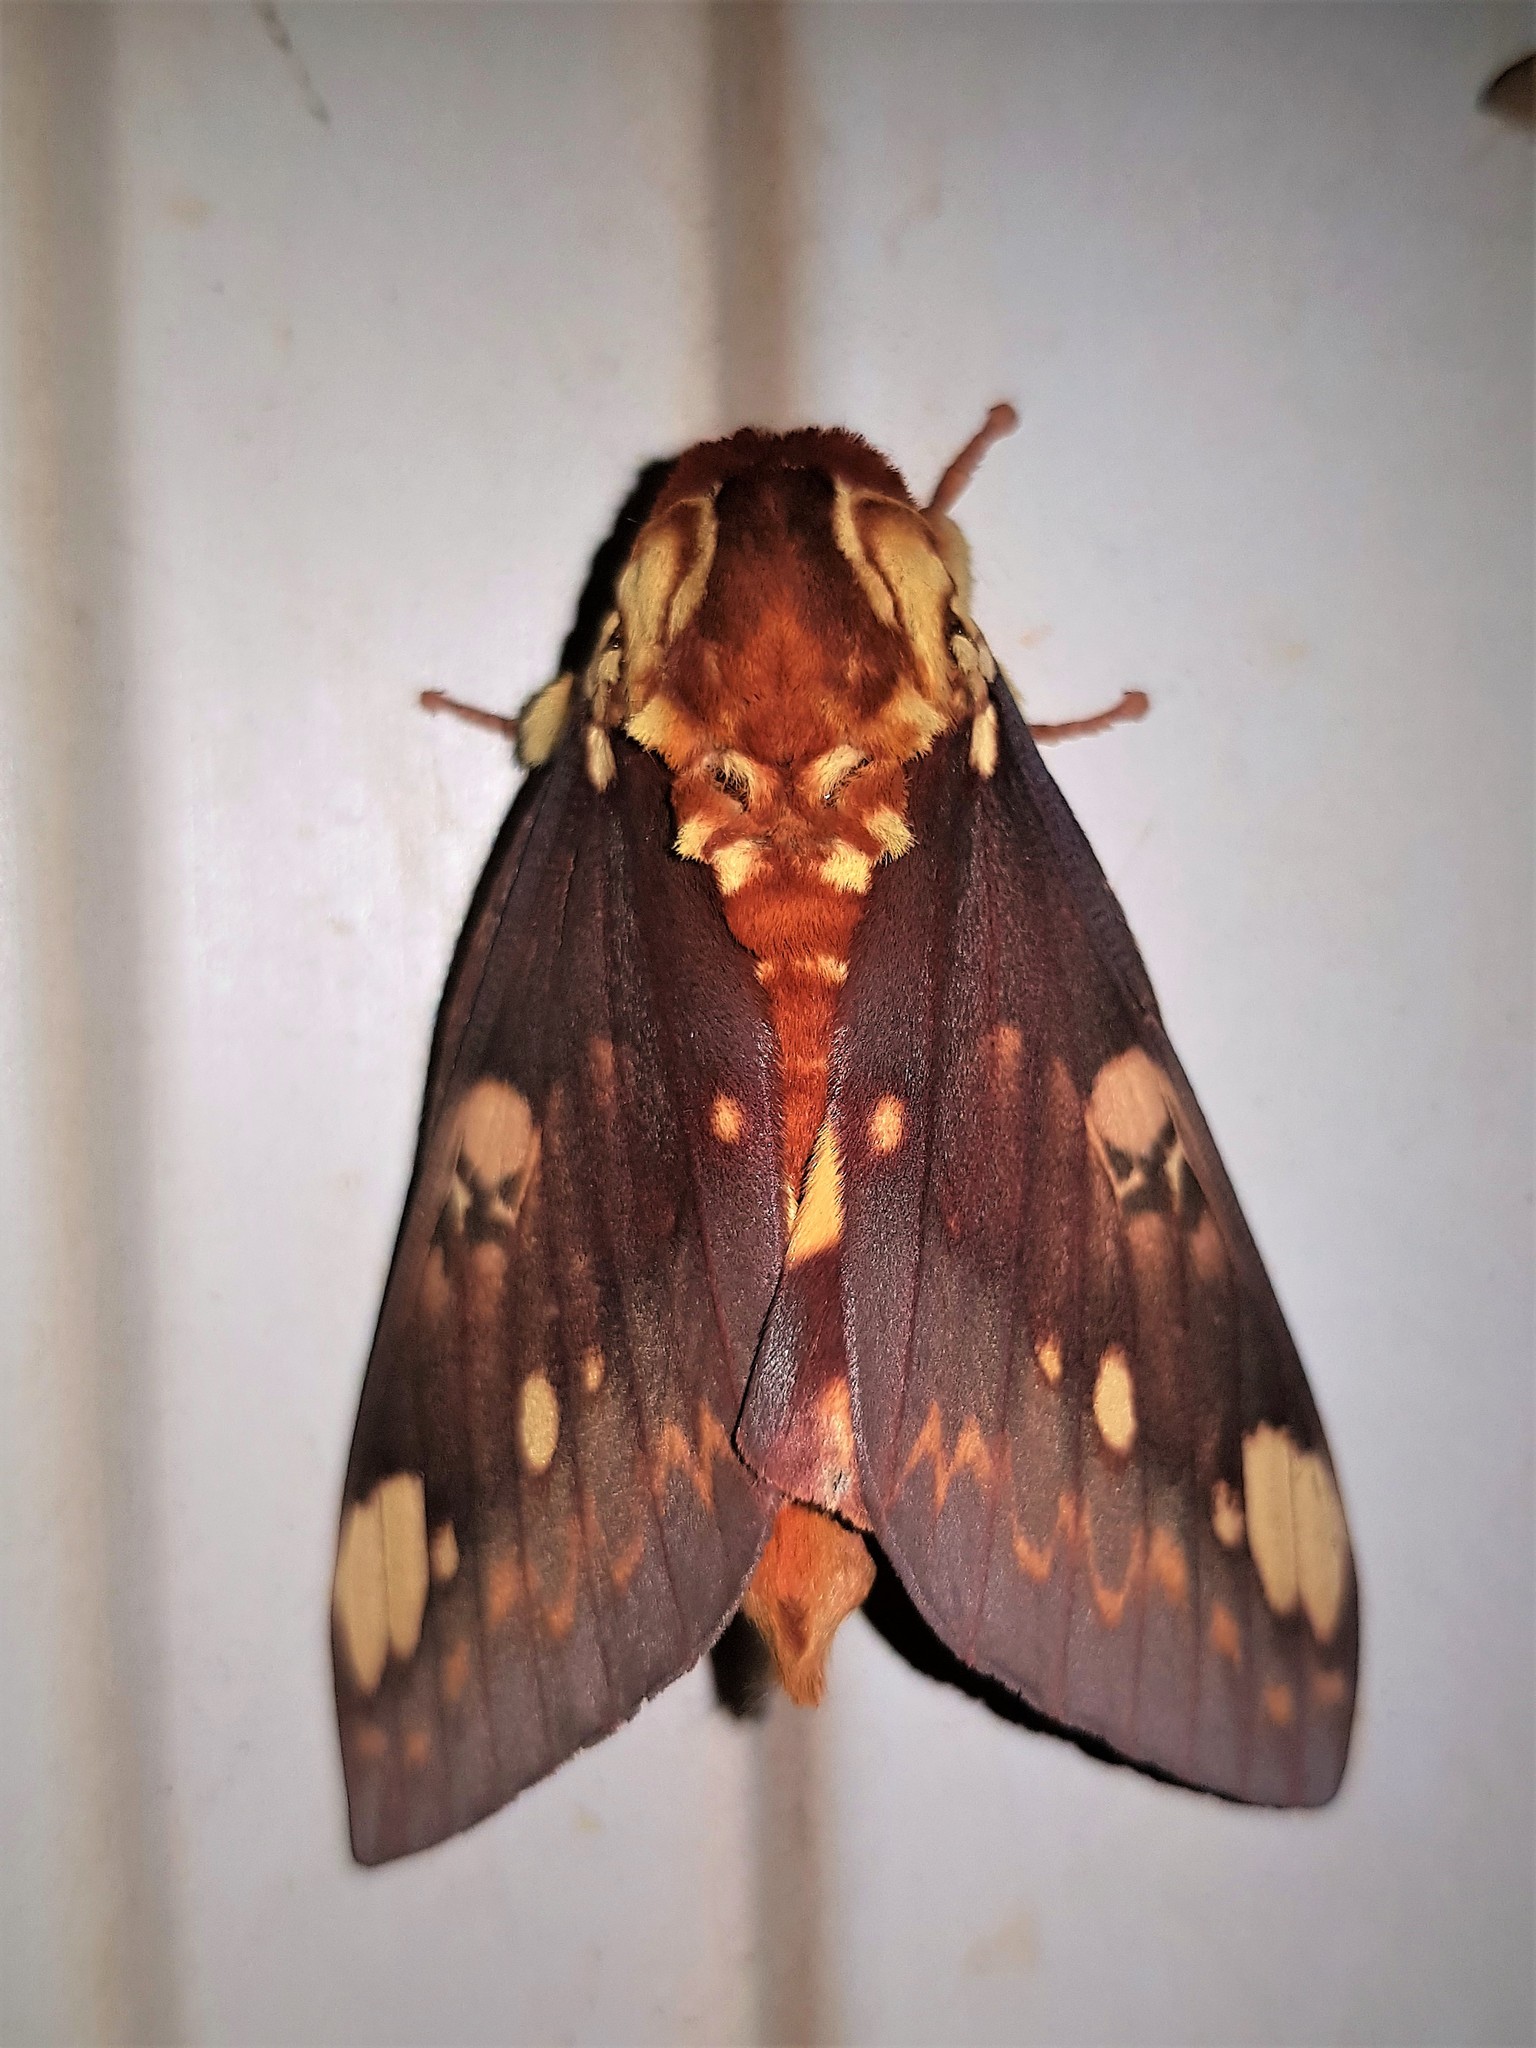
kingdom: Animalia
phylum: Arthropoda
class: Insecta
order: Lepidoptera
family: Saturniidae
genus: Citheronia
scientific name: Citheronia hamifera
